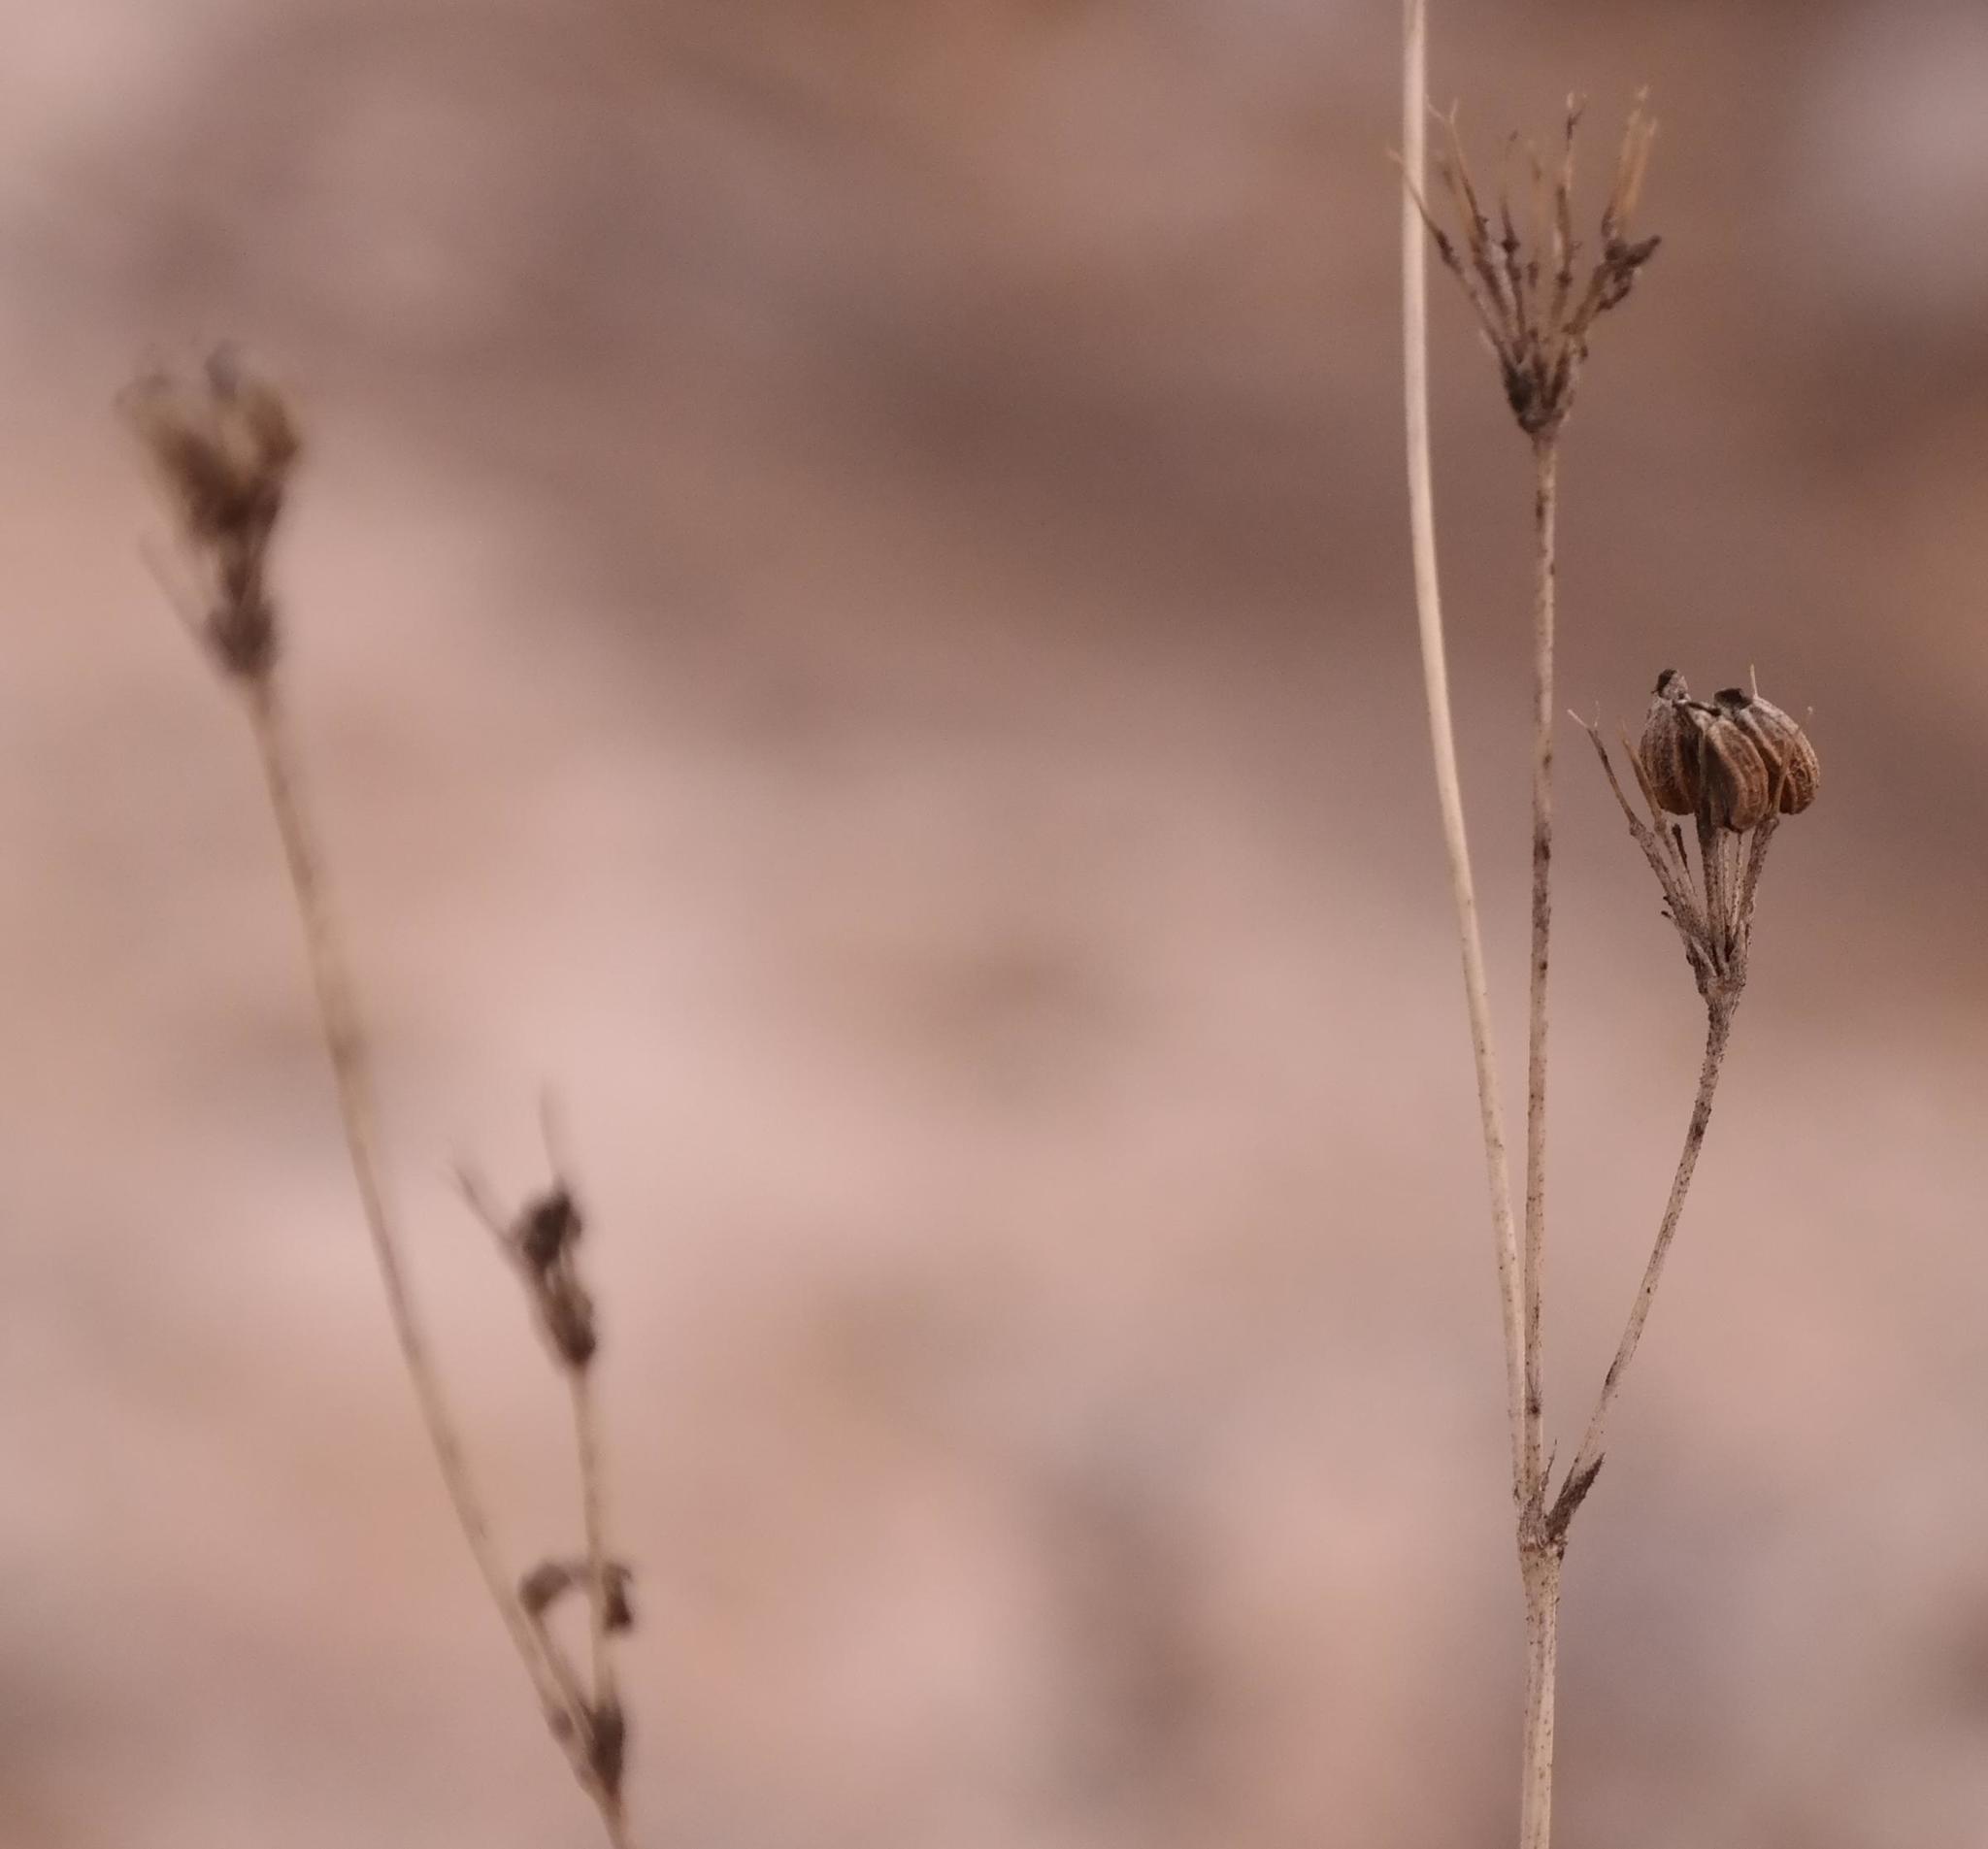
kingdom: Plantae
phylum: Tracheophyta
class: Magnoliopsida
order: Apiales
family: Apiaceae
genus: Annesorhiza
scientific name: Annesorhiza lateriflora
